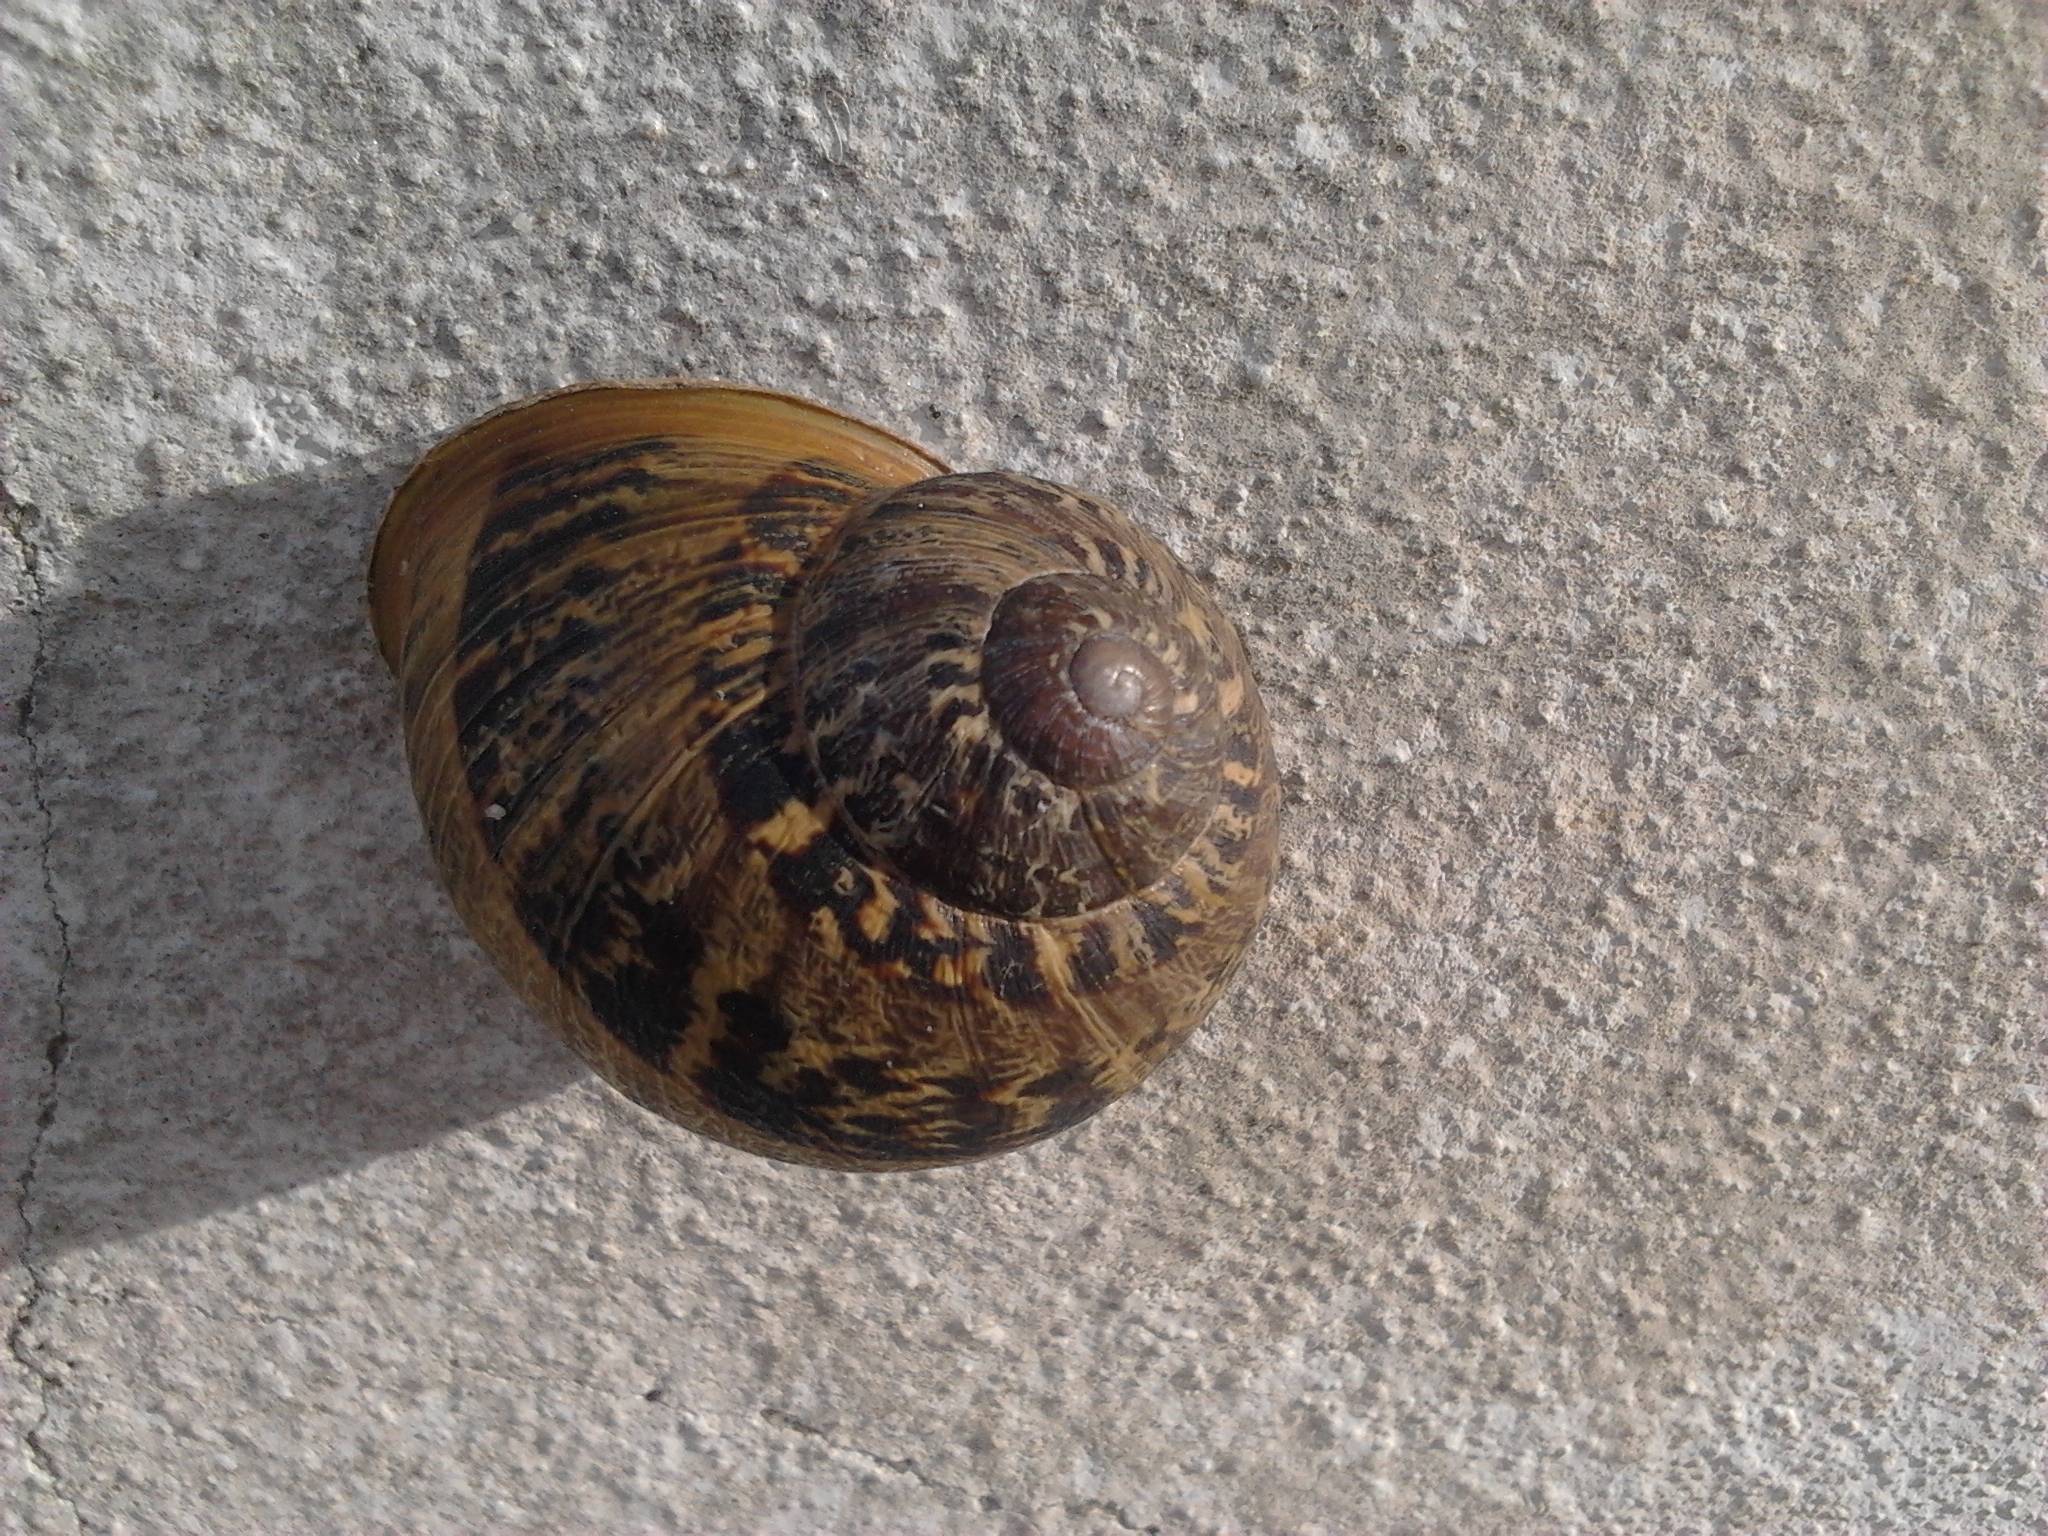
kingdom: Animalia
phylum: Mollusca
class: Gastropoda
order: Stylommatophora
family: Helicidae
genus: Cornu
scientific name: Cornu aspersum
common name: Brown garden snail
